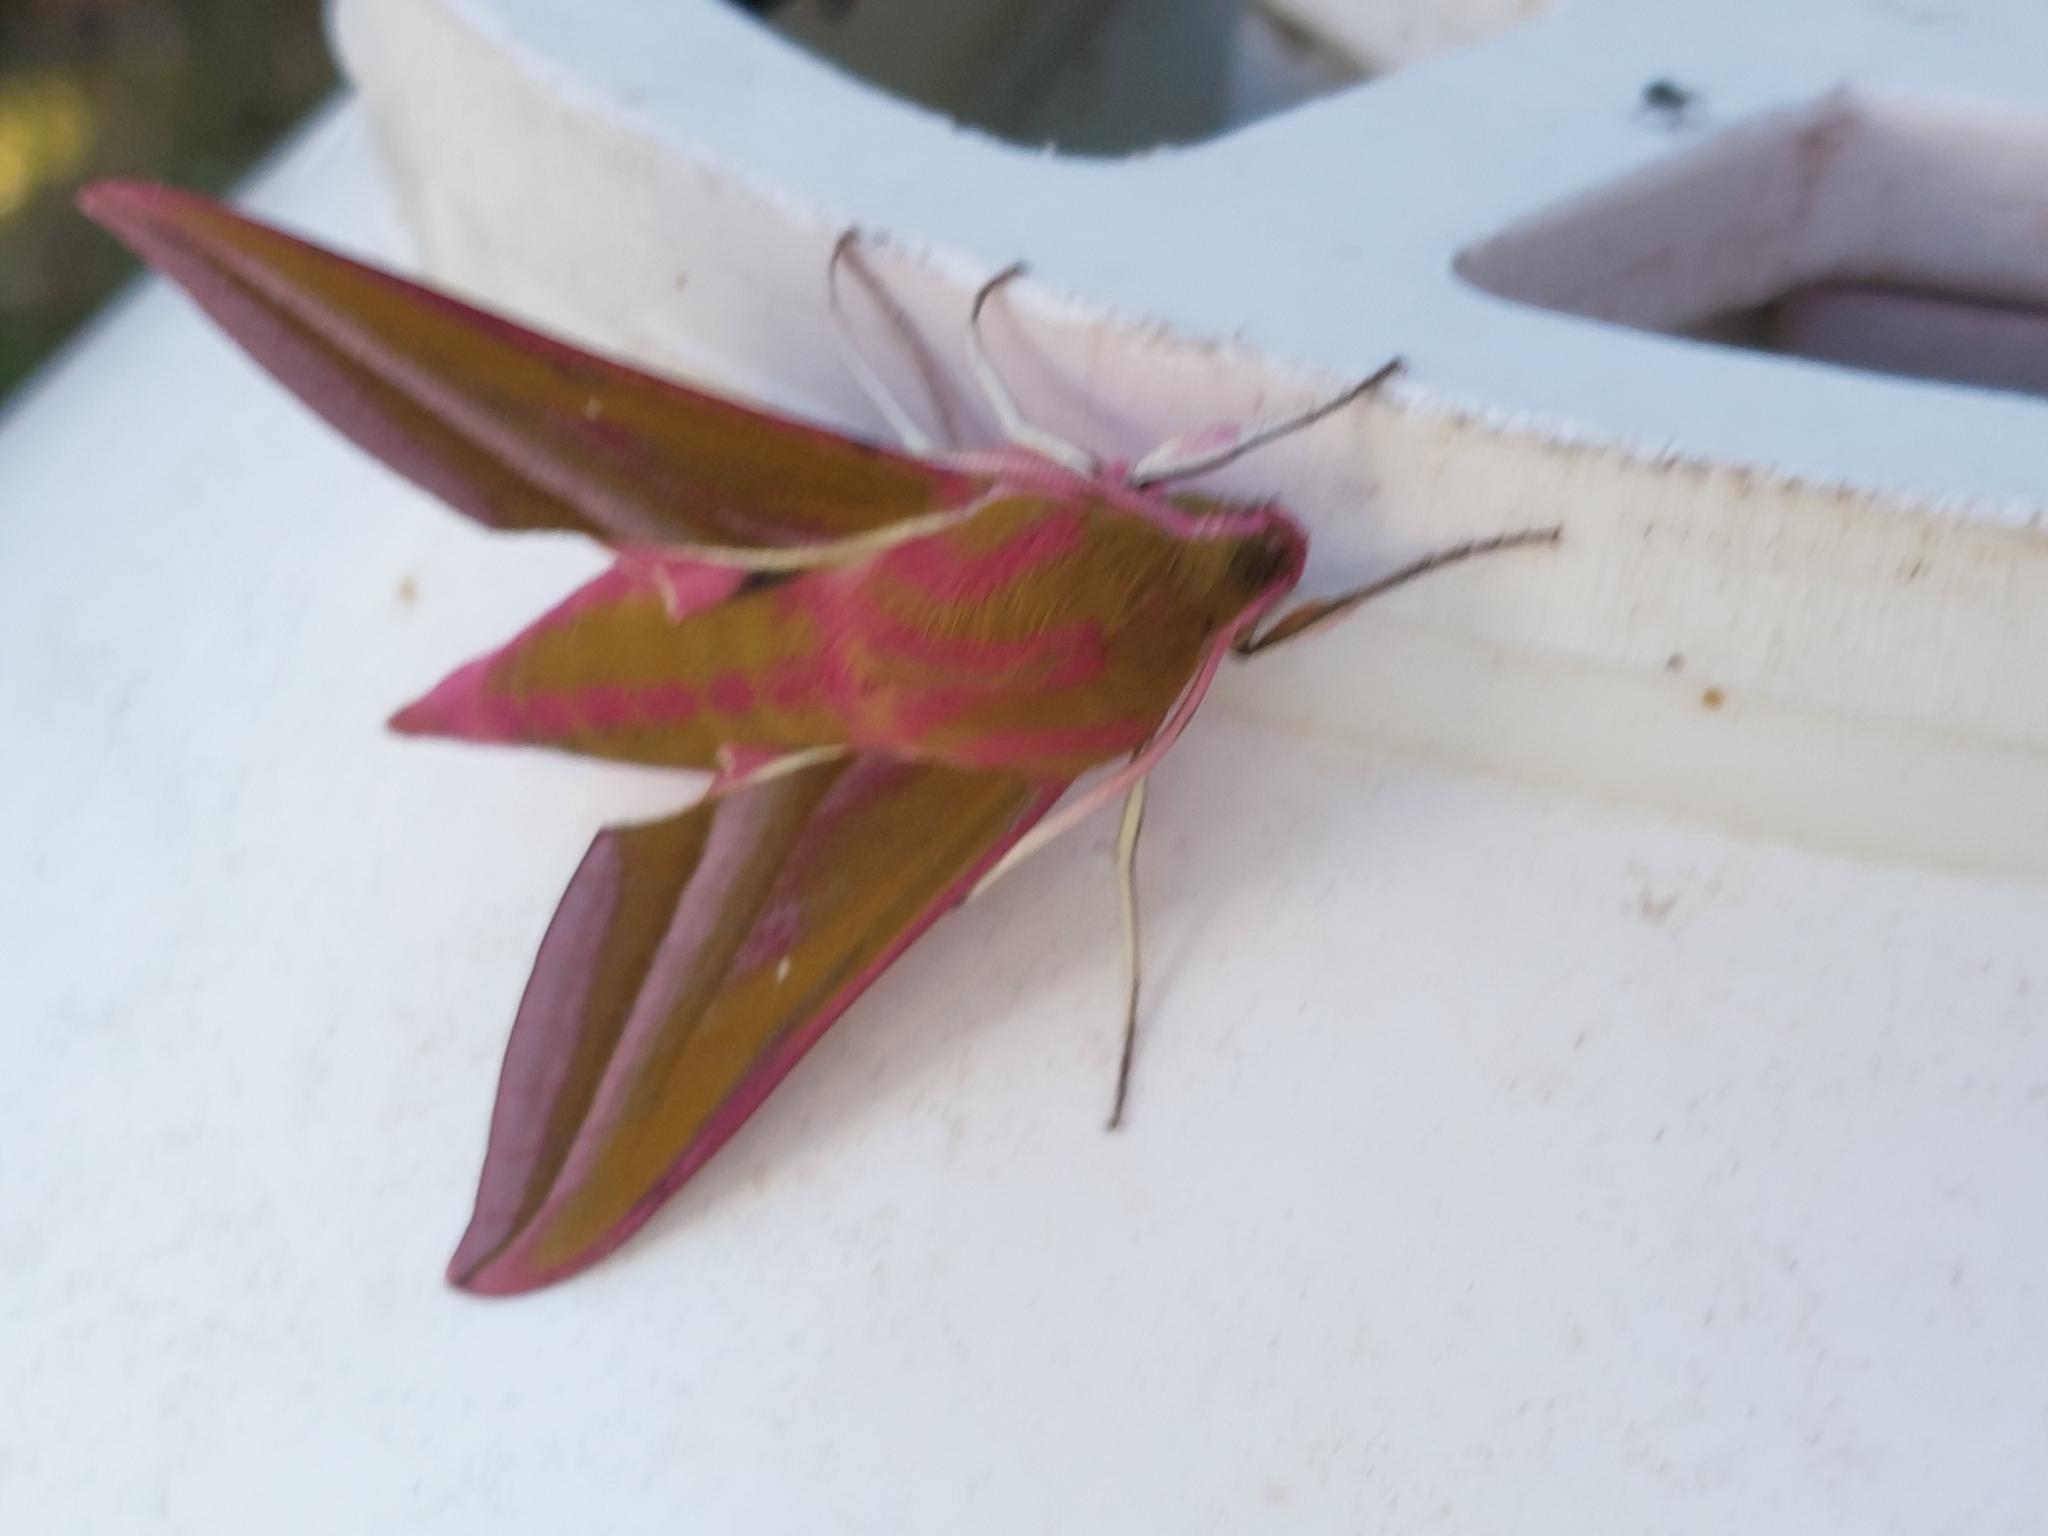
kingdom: Animalia
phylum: Arthropoda
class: Insecta
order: Lepidoptera
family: Sphingidae
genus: Deilephila
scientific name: Deilephila elpenor
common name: Elephant hawk-moth
